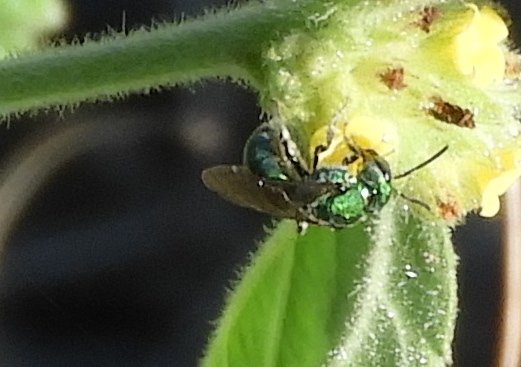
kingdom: Animalia
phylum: Arthropoda
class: Insecta
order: Hymenoptera
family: Halictidae
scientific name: Halictidae
